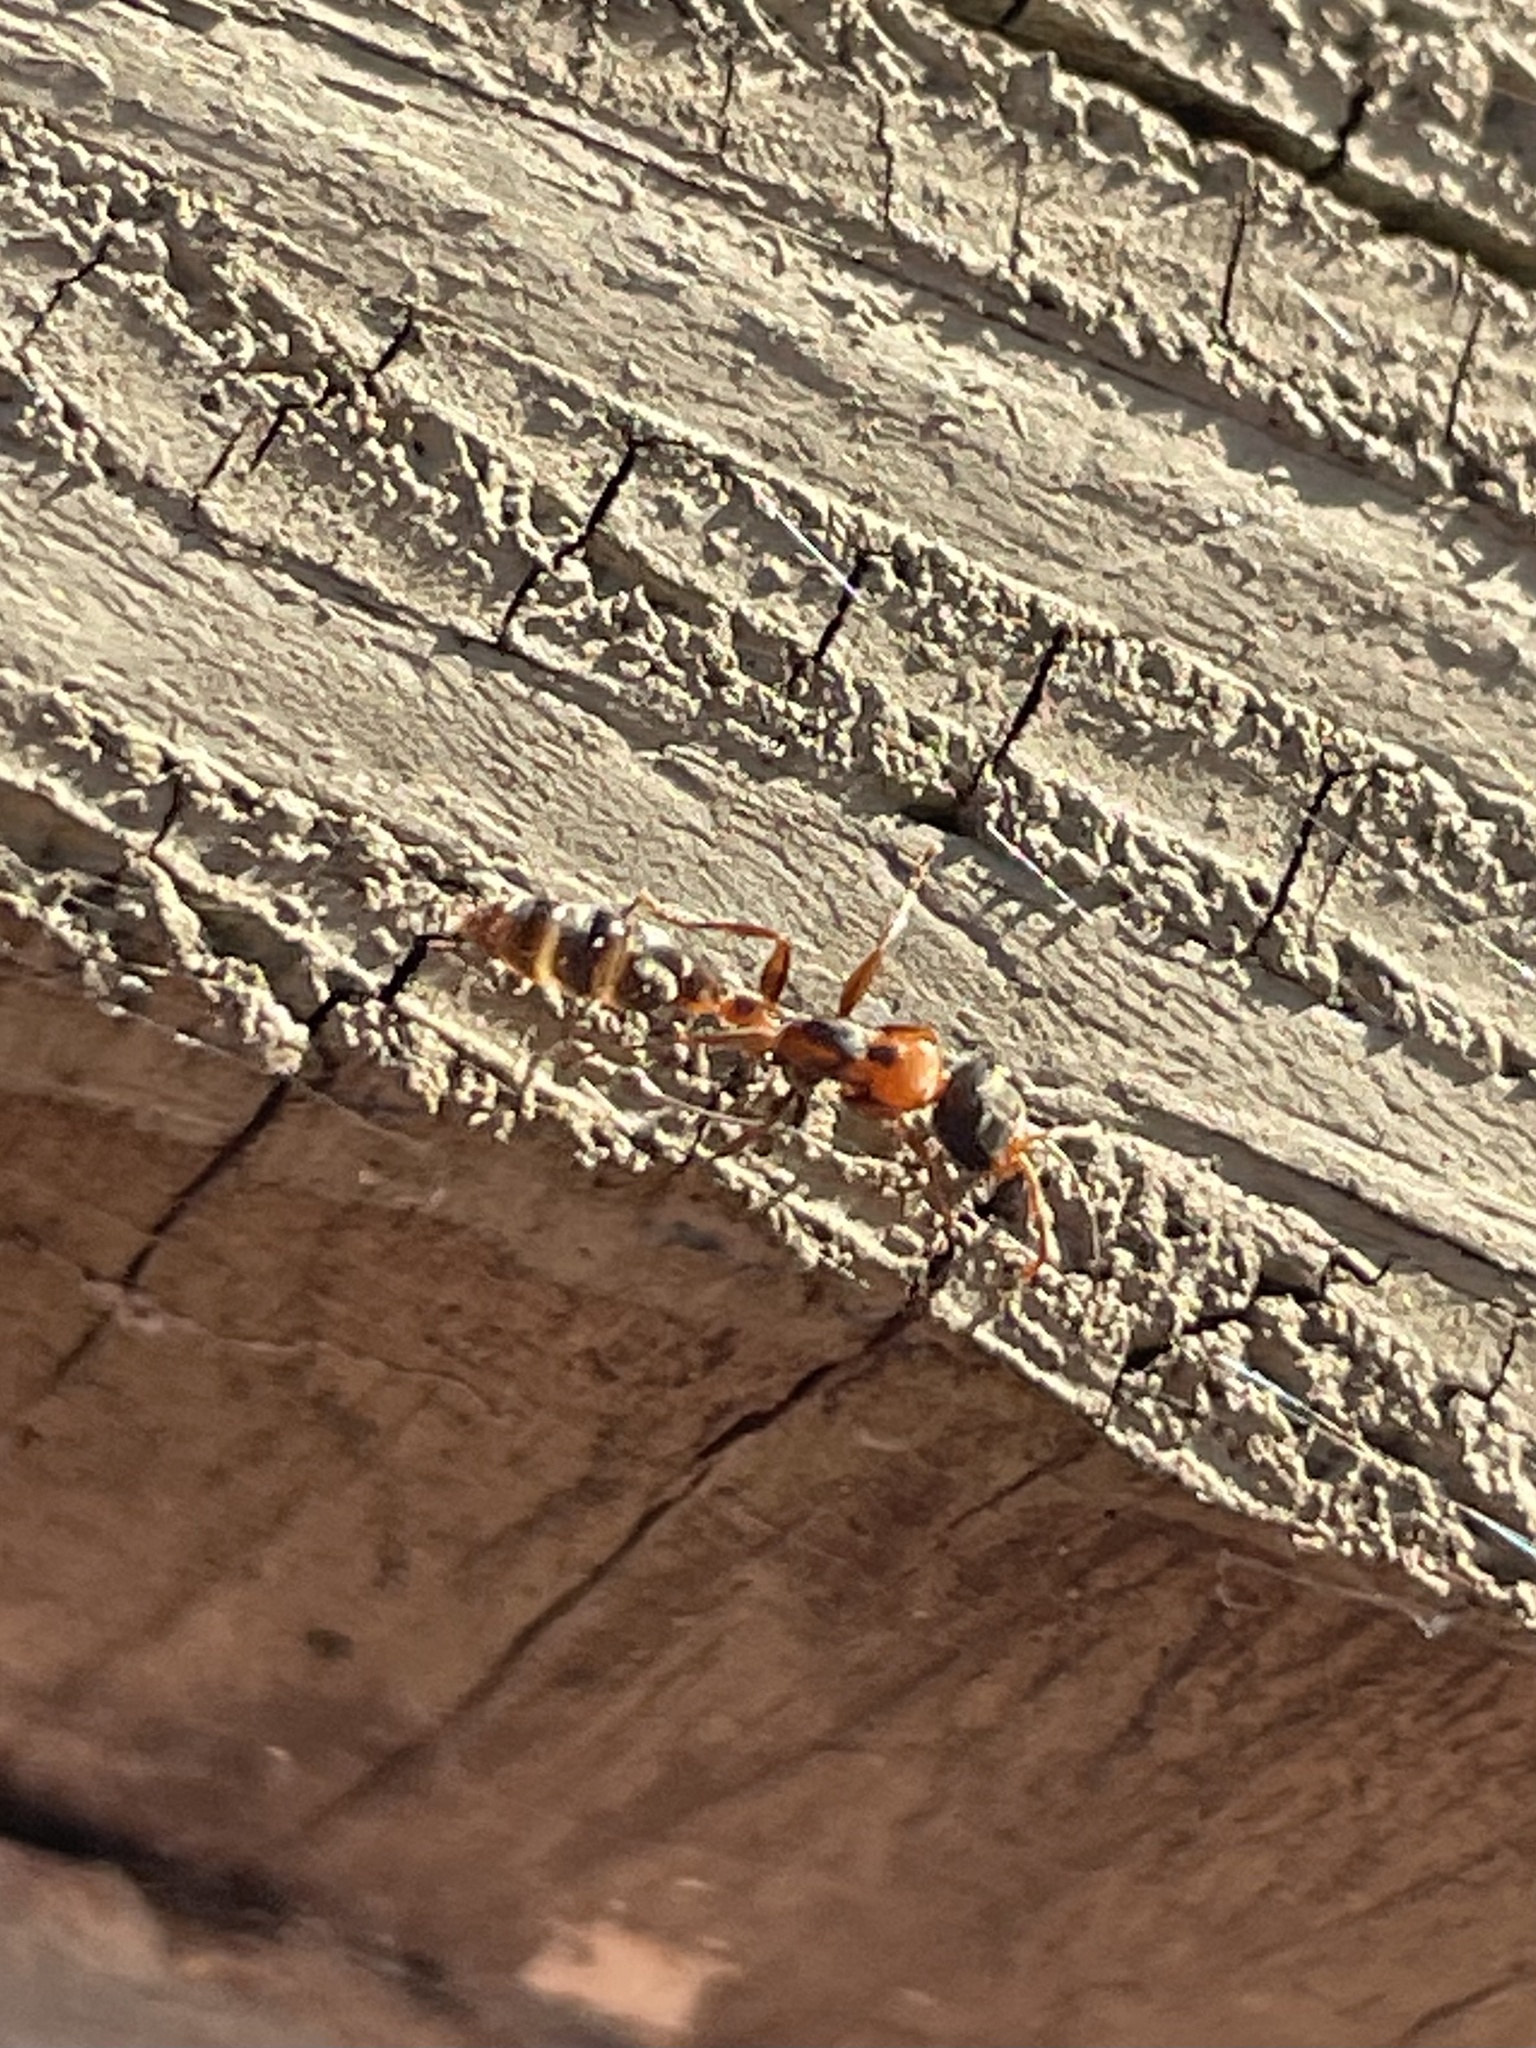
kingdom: Animalia
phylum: Arthropoda
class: Insecta
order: Hymenoptera
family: Formicidae
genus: Pseudomyrmex
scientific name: Pseudomyrmex gracilis
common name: Graceful twig ant
